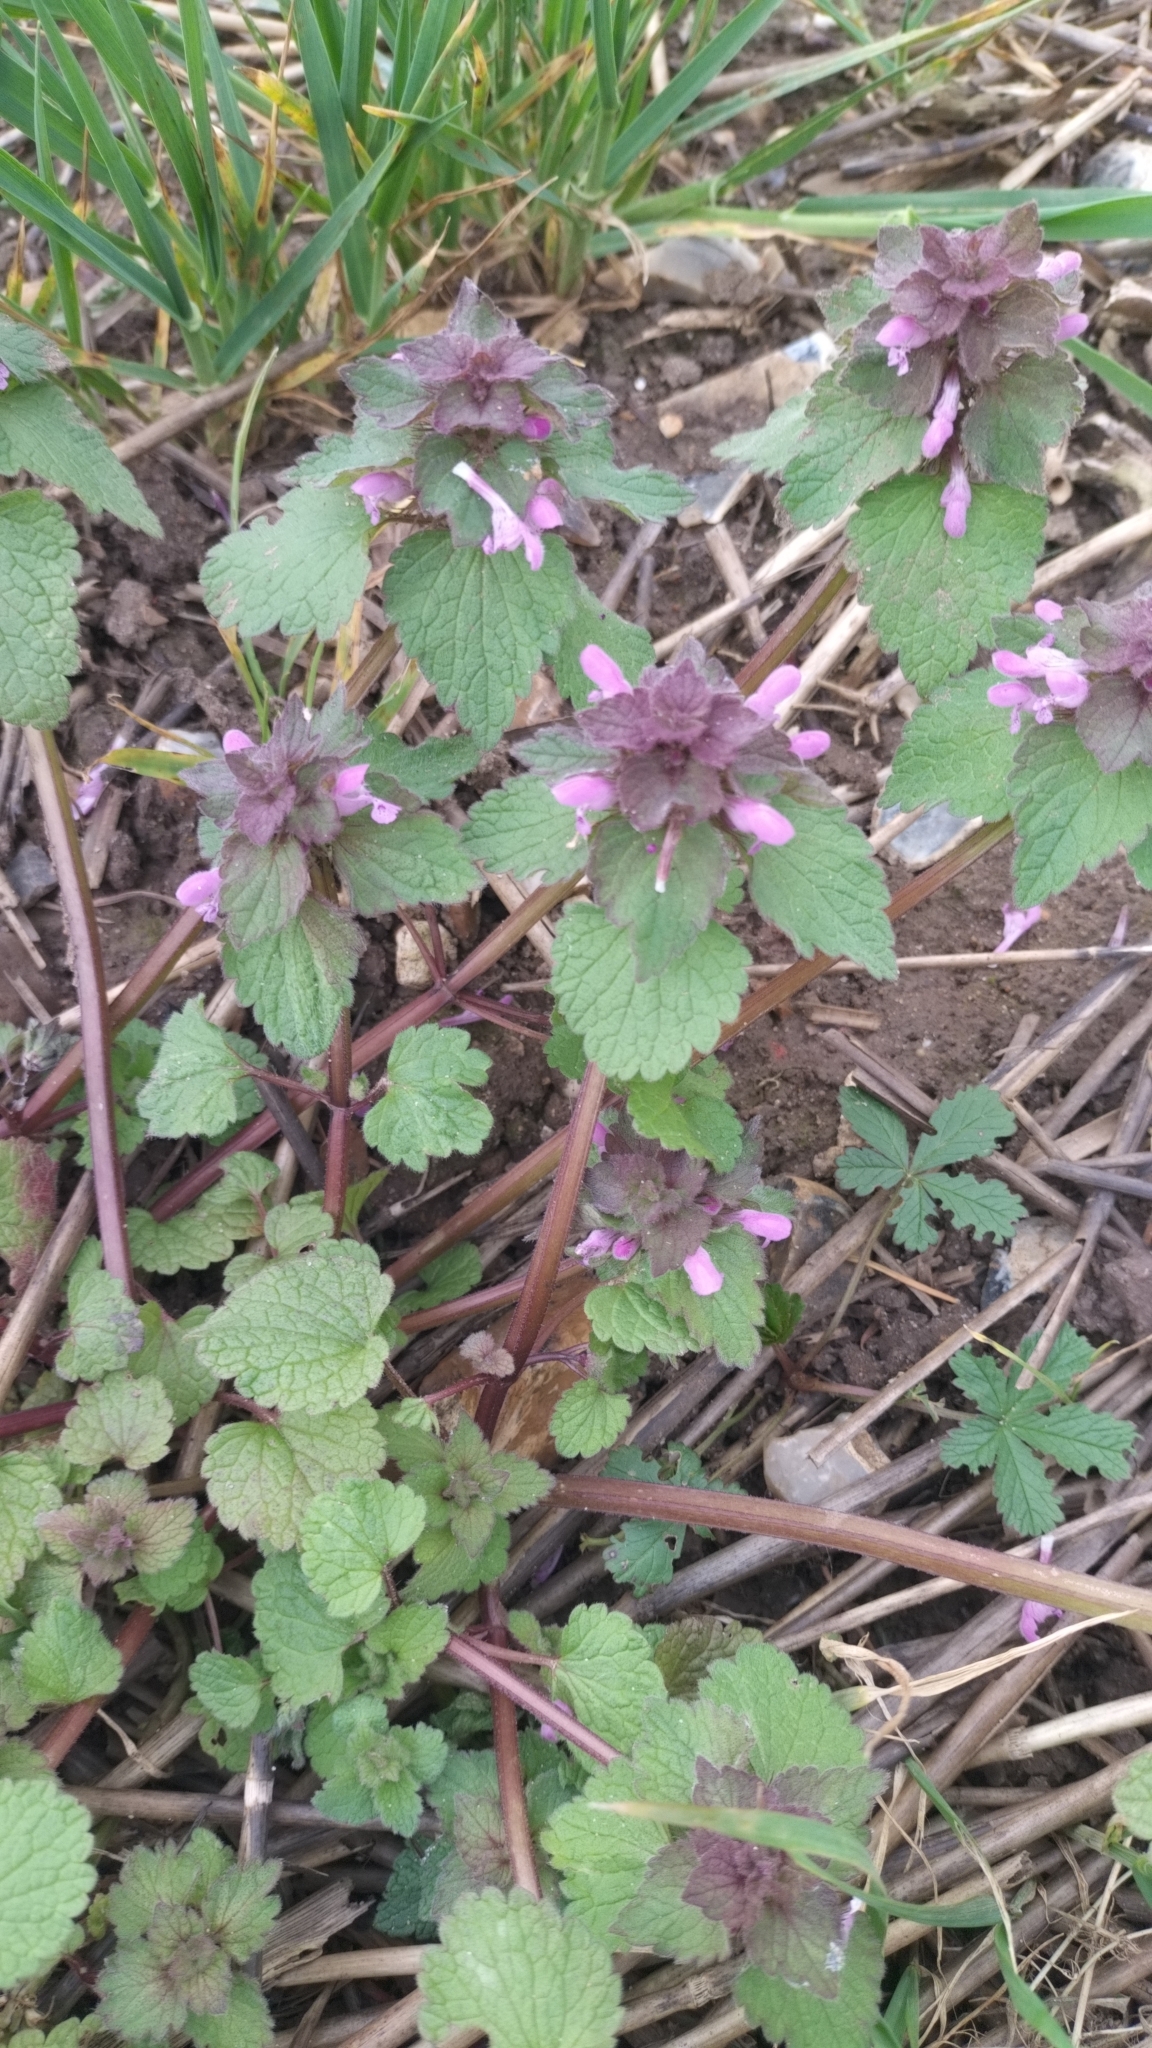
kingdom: Plantae
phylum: Tracheophyta
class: Magnoliopsida
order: Lamiales
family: Lamiaceae
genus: Lamium
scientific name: Lamium purpureum
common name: Red dead-nettle
